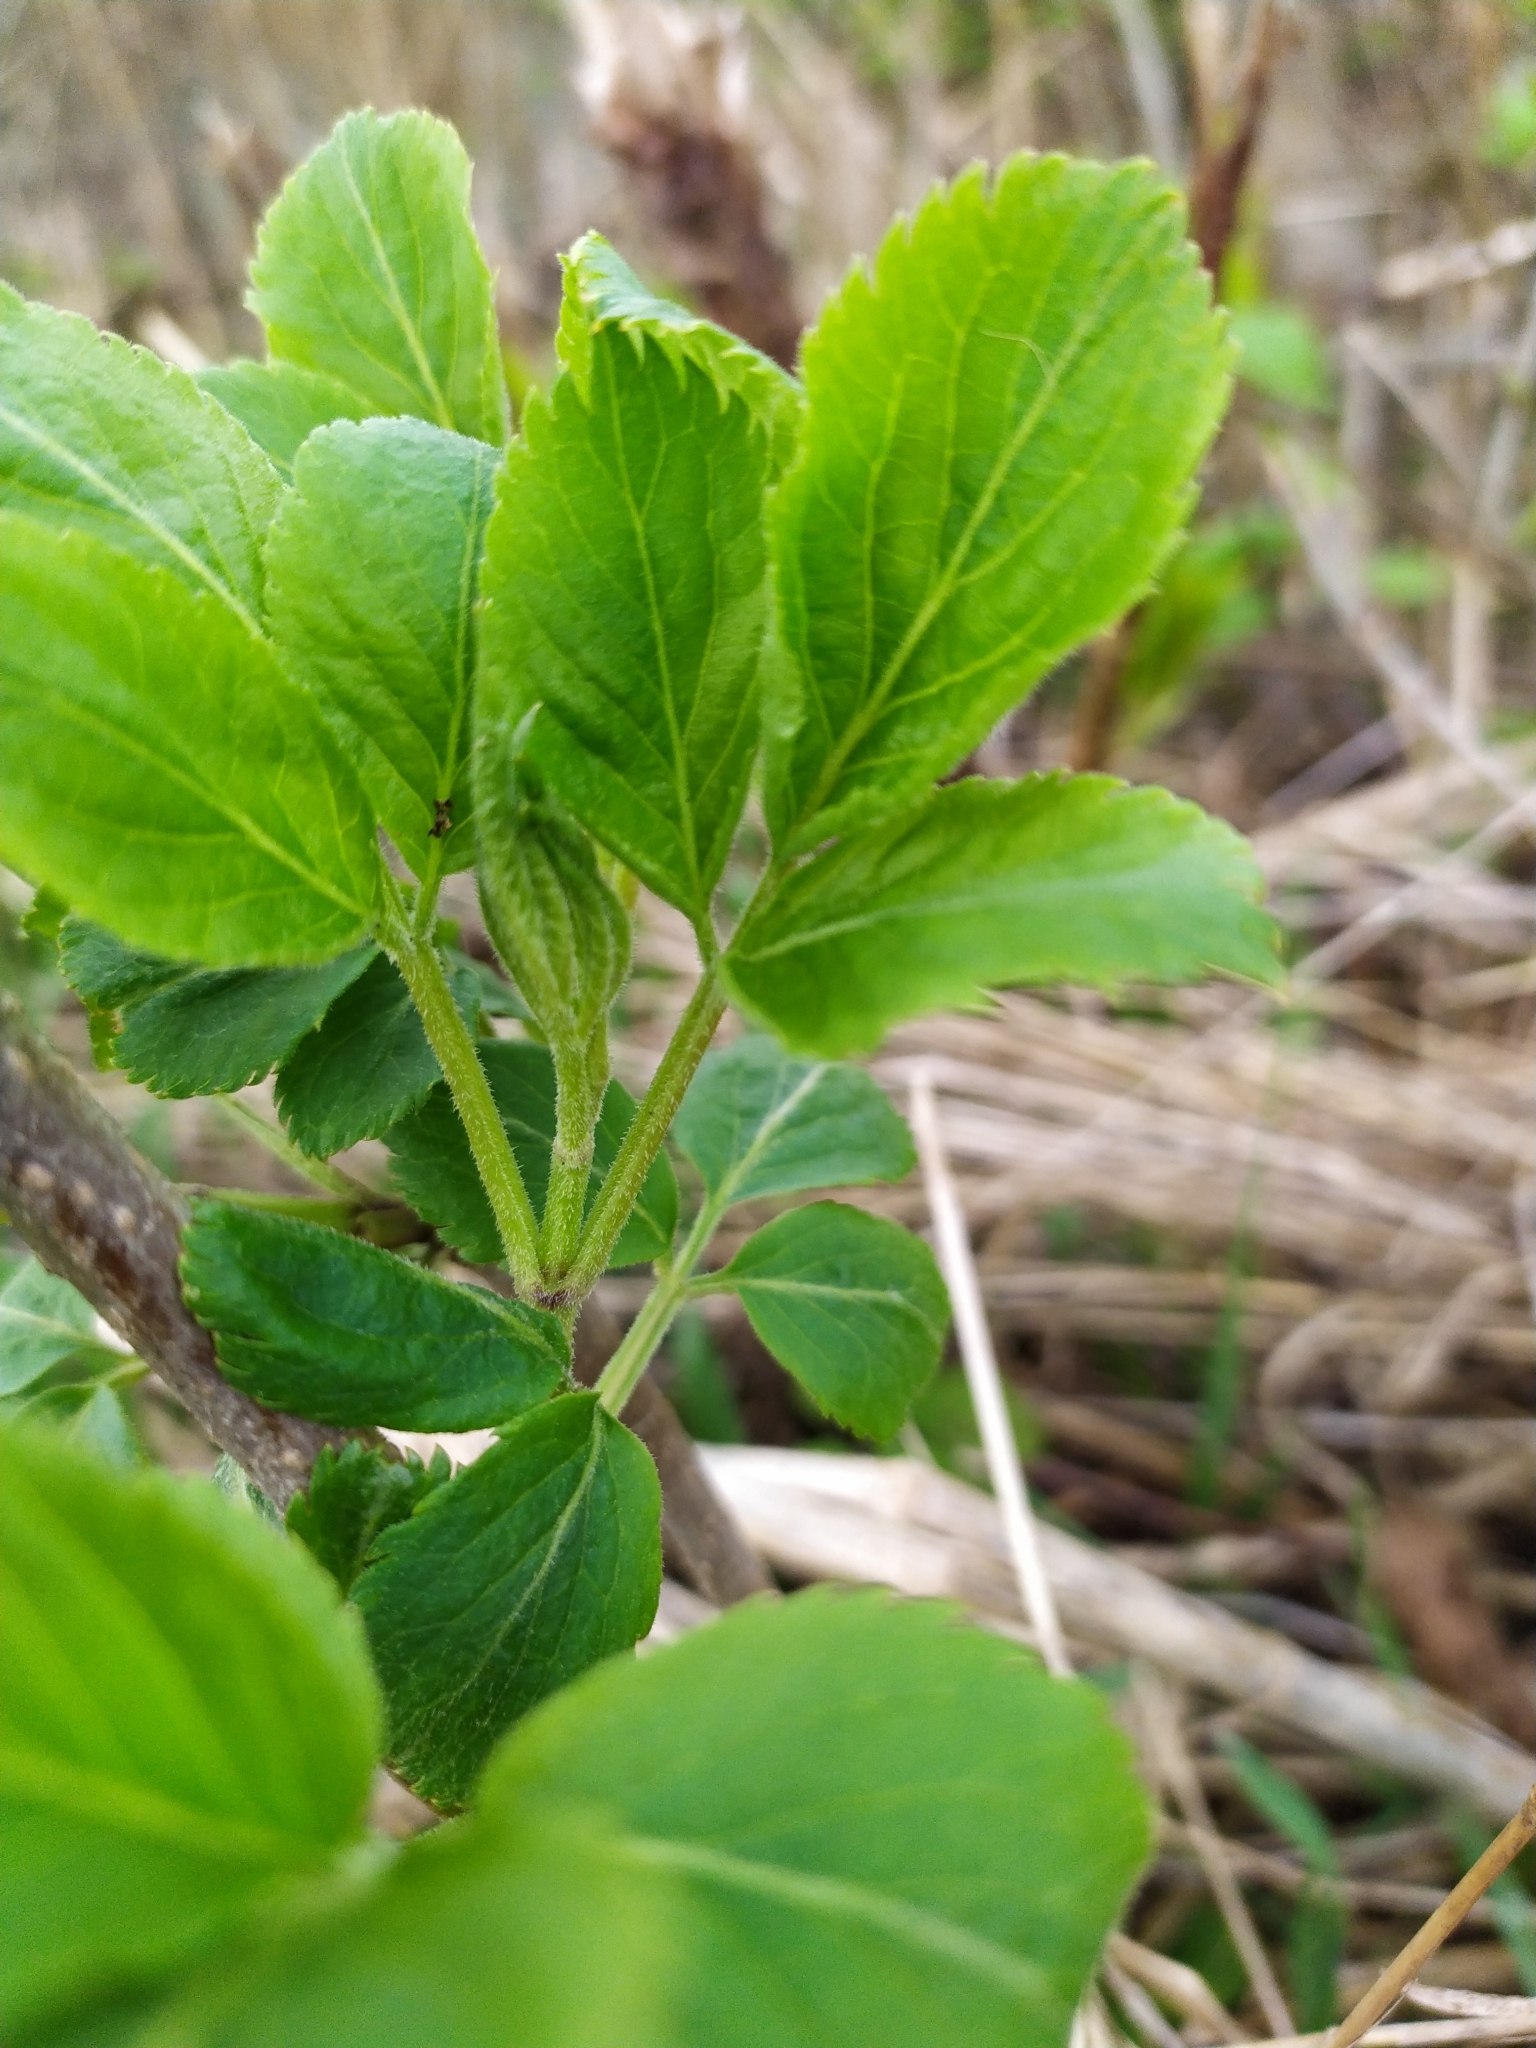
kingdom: Plantae
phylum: Tracheophyta
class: Magnoliopsida
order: Dipsacales
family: Viburnaceae
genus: Sambucus
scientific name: Sambucus nigra
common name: Elder
